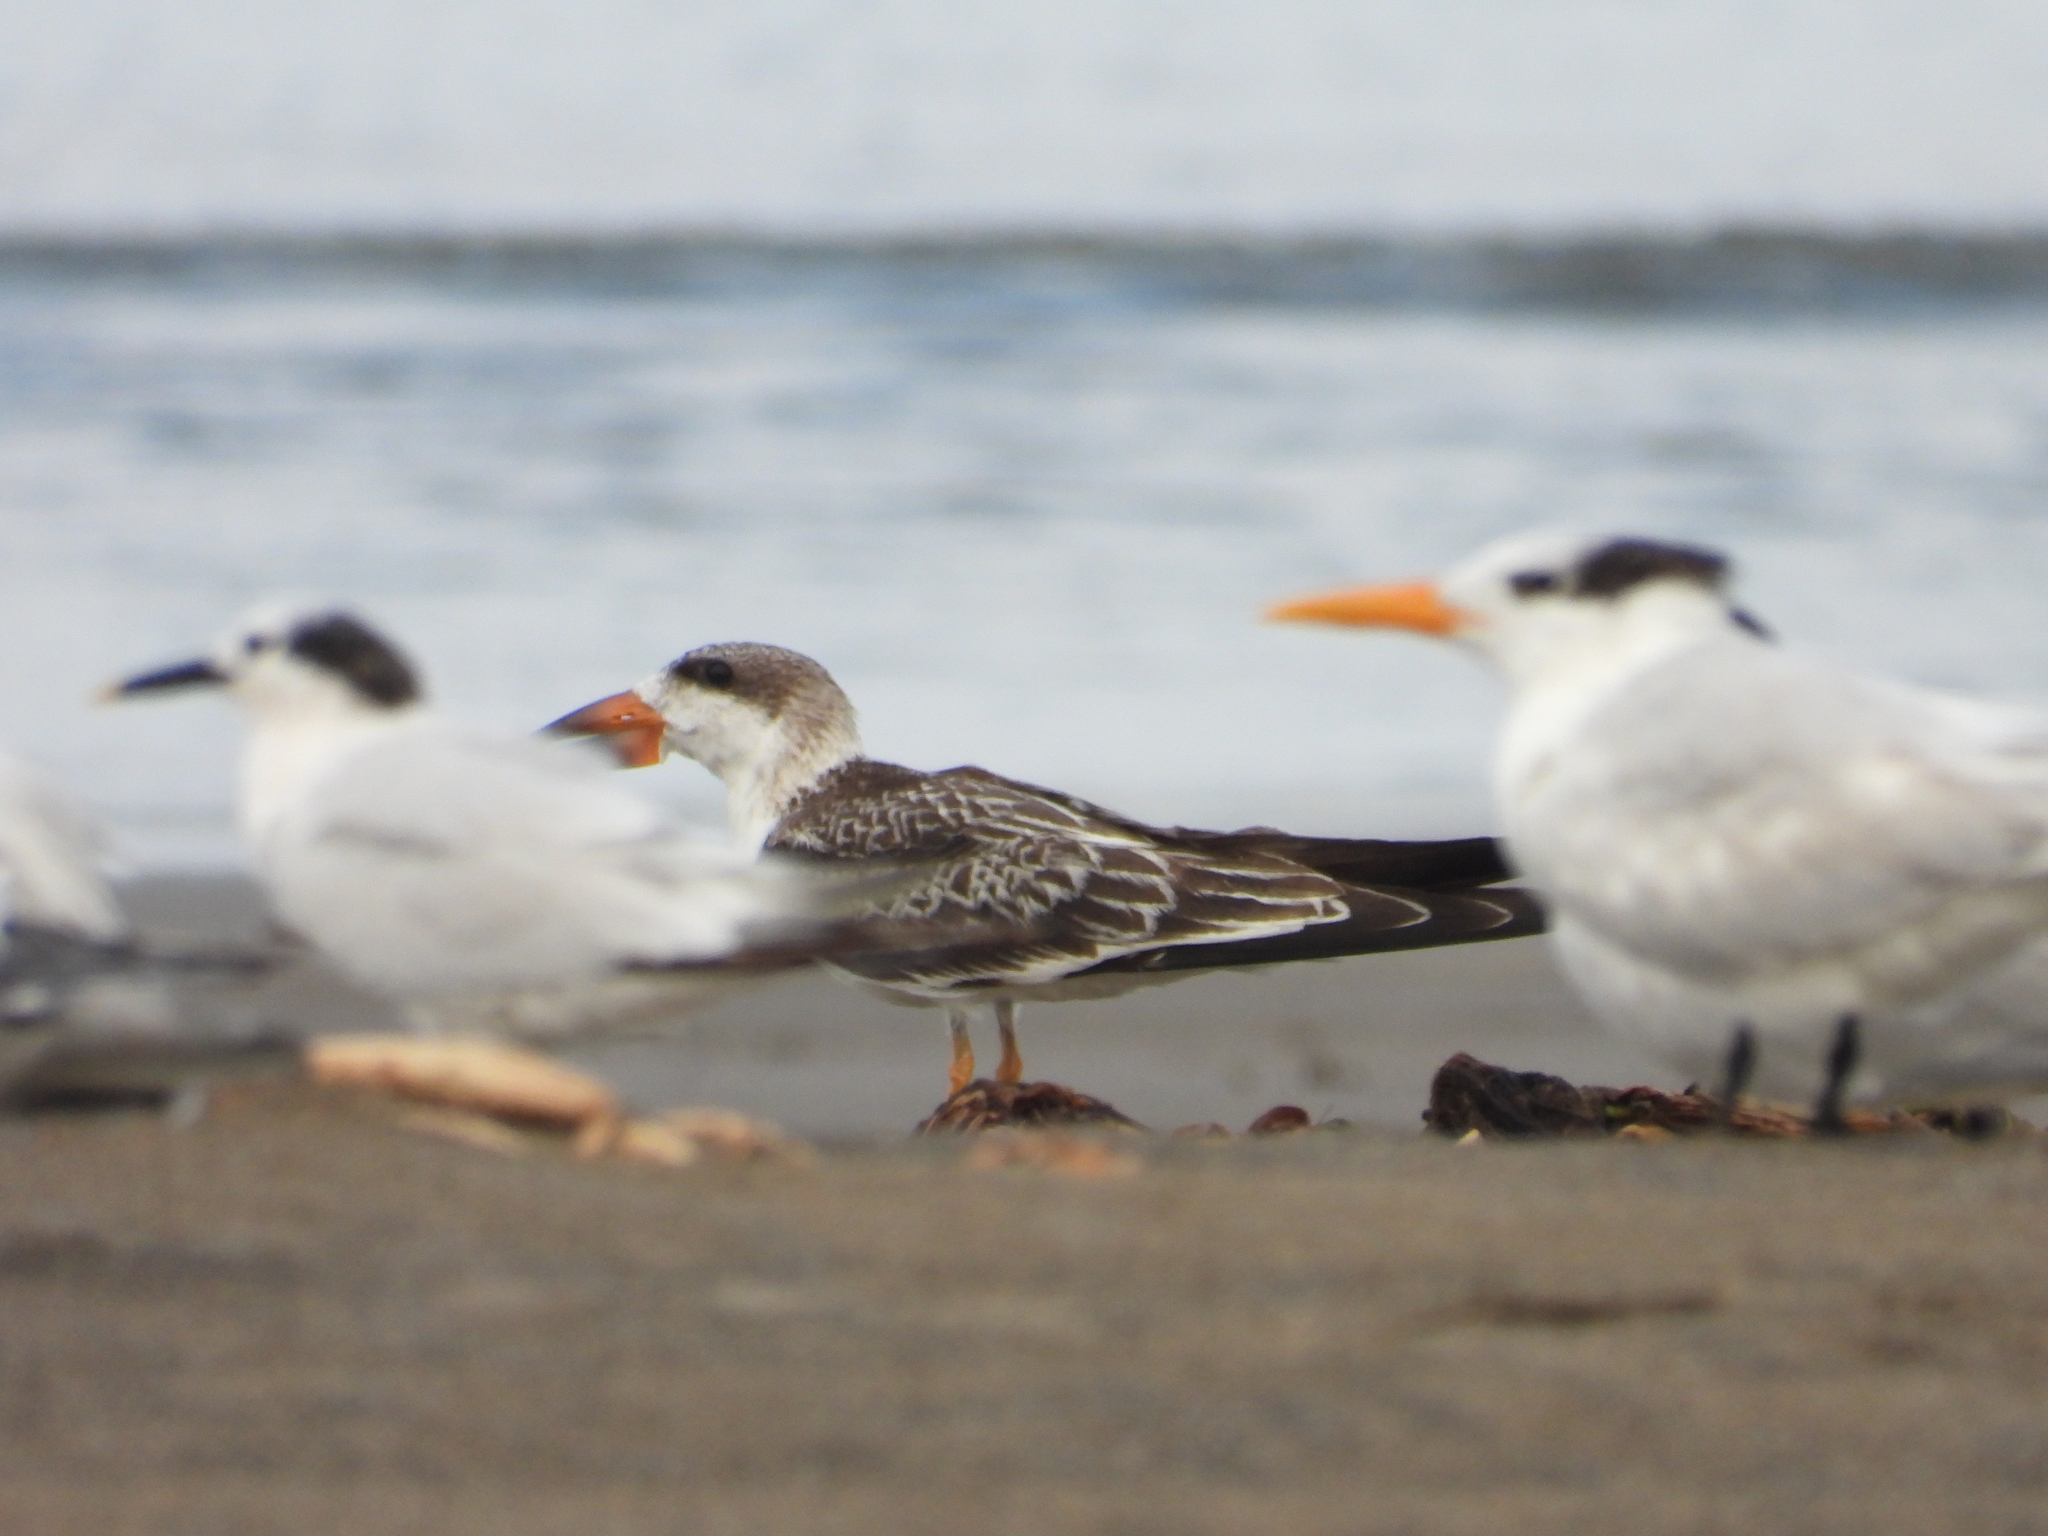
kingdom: Animalia
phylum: Chordata
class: Aves
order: Charadriiformes
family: Laridae
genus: Rynchops
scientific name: Rynchops niger
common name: Black skimmer
